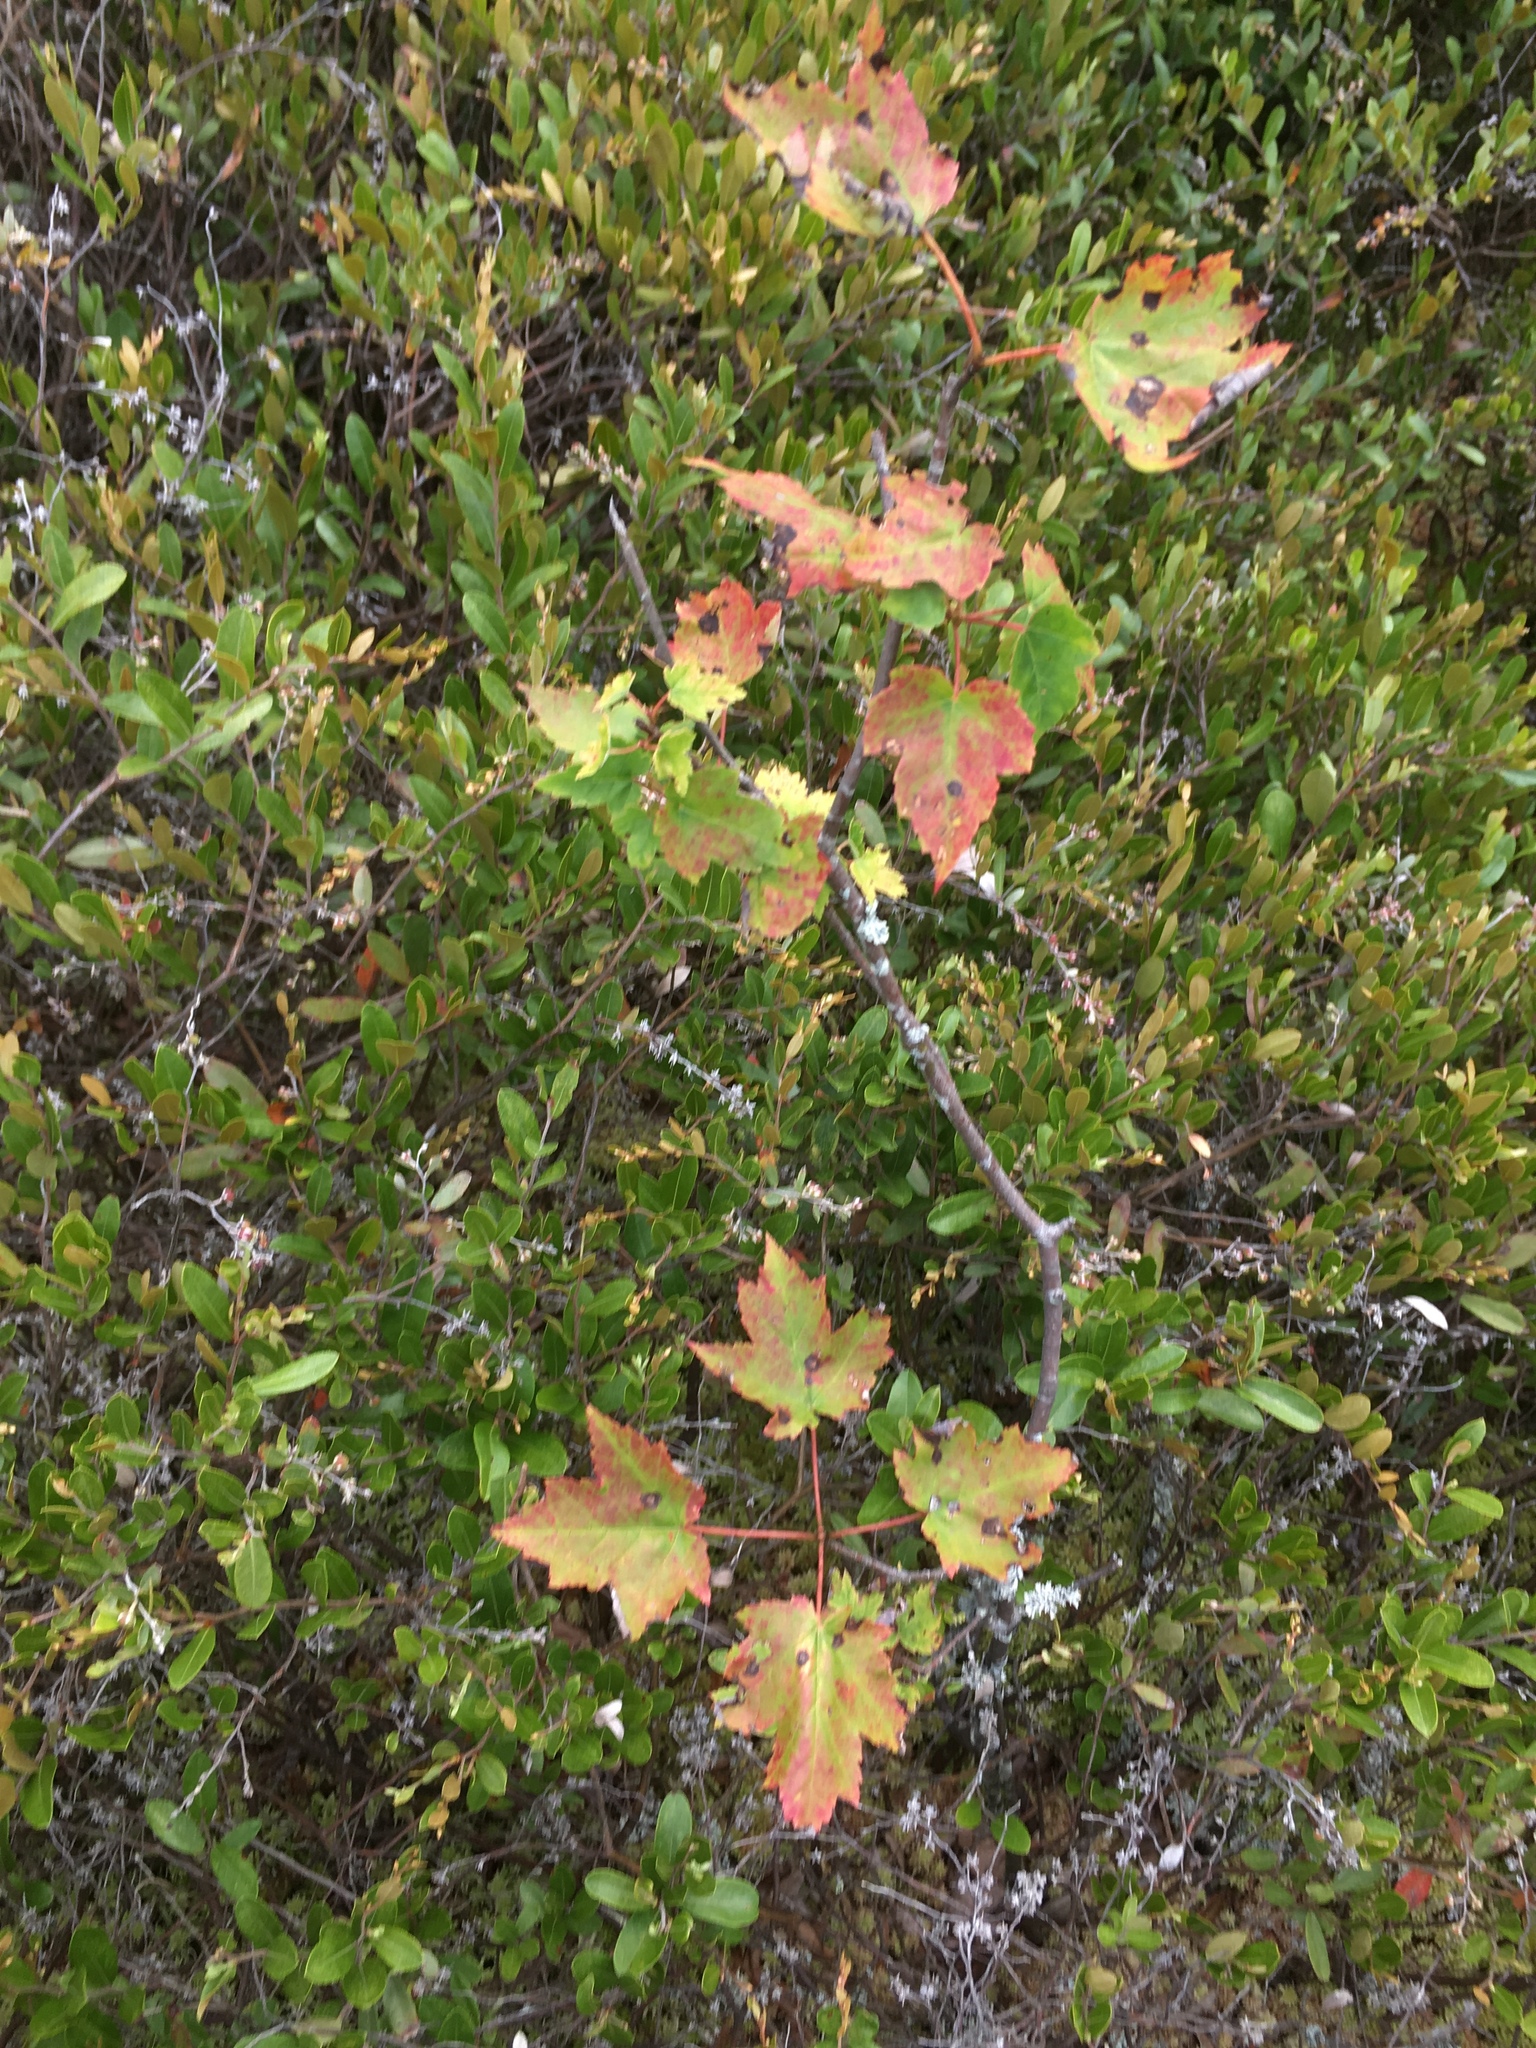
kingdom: Plantae
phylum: Tracheophyta
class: Magnoliopsida
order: Sapindales
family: Sapindaceae
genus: Acer
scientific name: Acer rubrum
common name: Red maple
